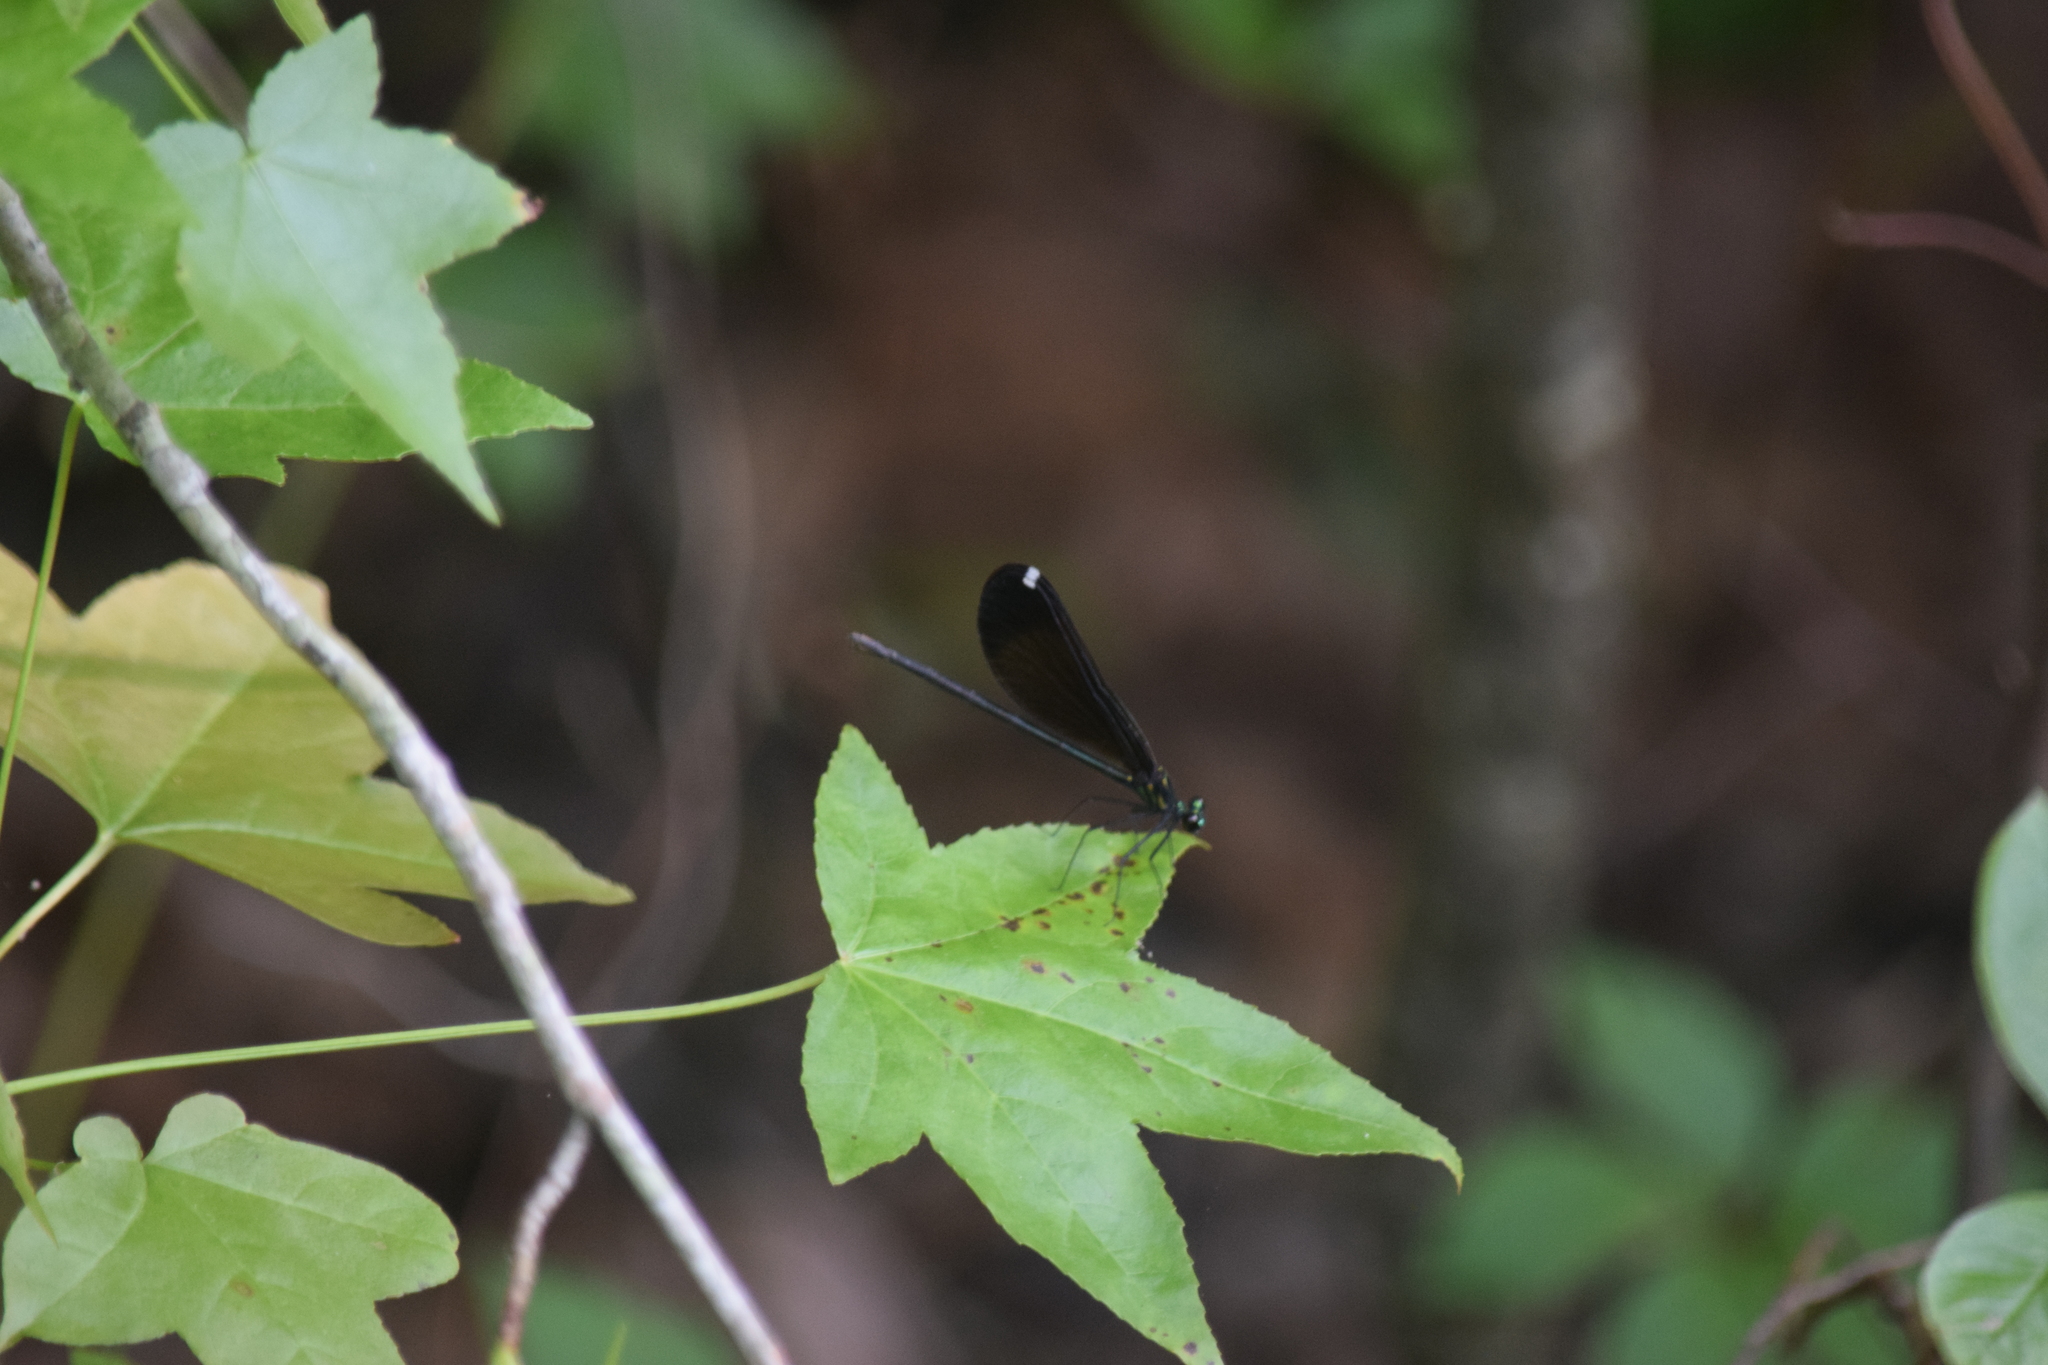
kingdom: Animalia
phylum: Arthropoda
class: Insecta
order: Odonata
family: Calopterygidae
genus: Calopteryx
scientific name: Calopteryx maculata
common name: Ebony jewelwing
